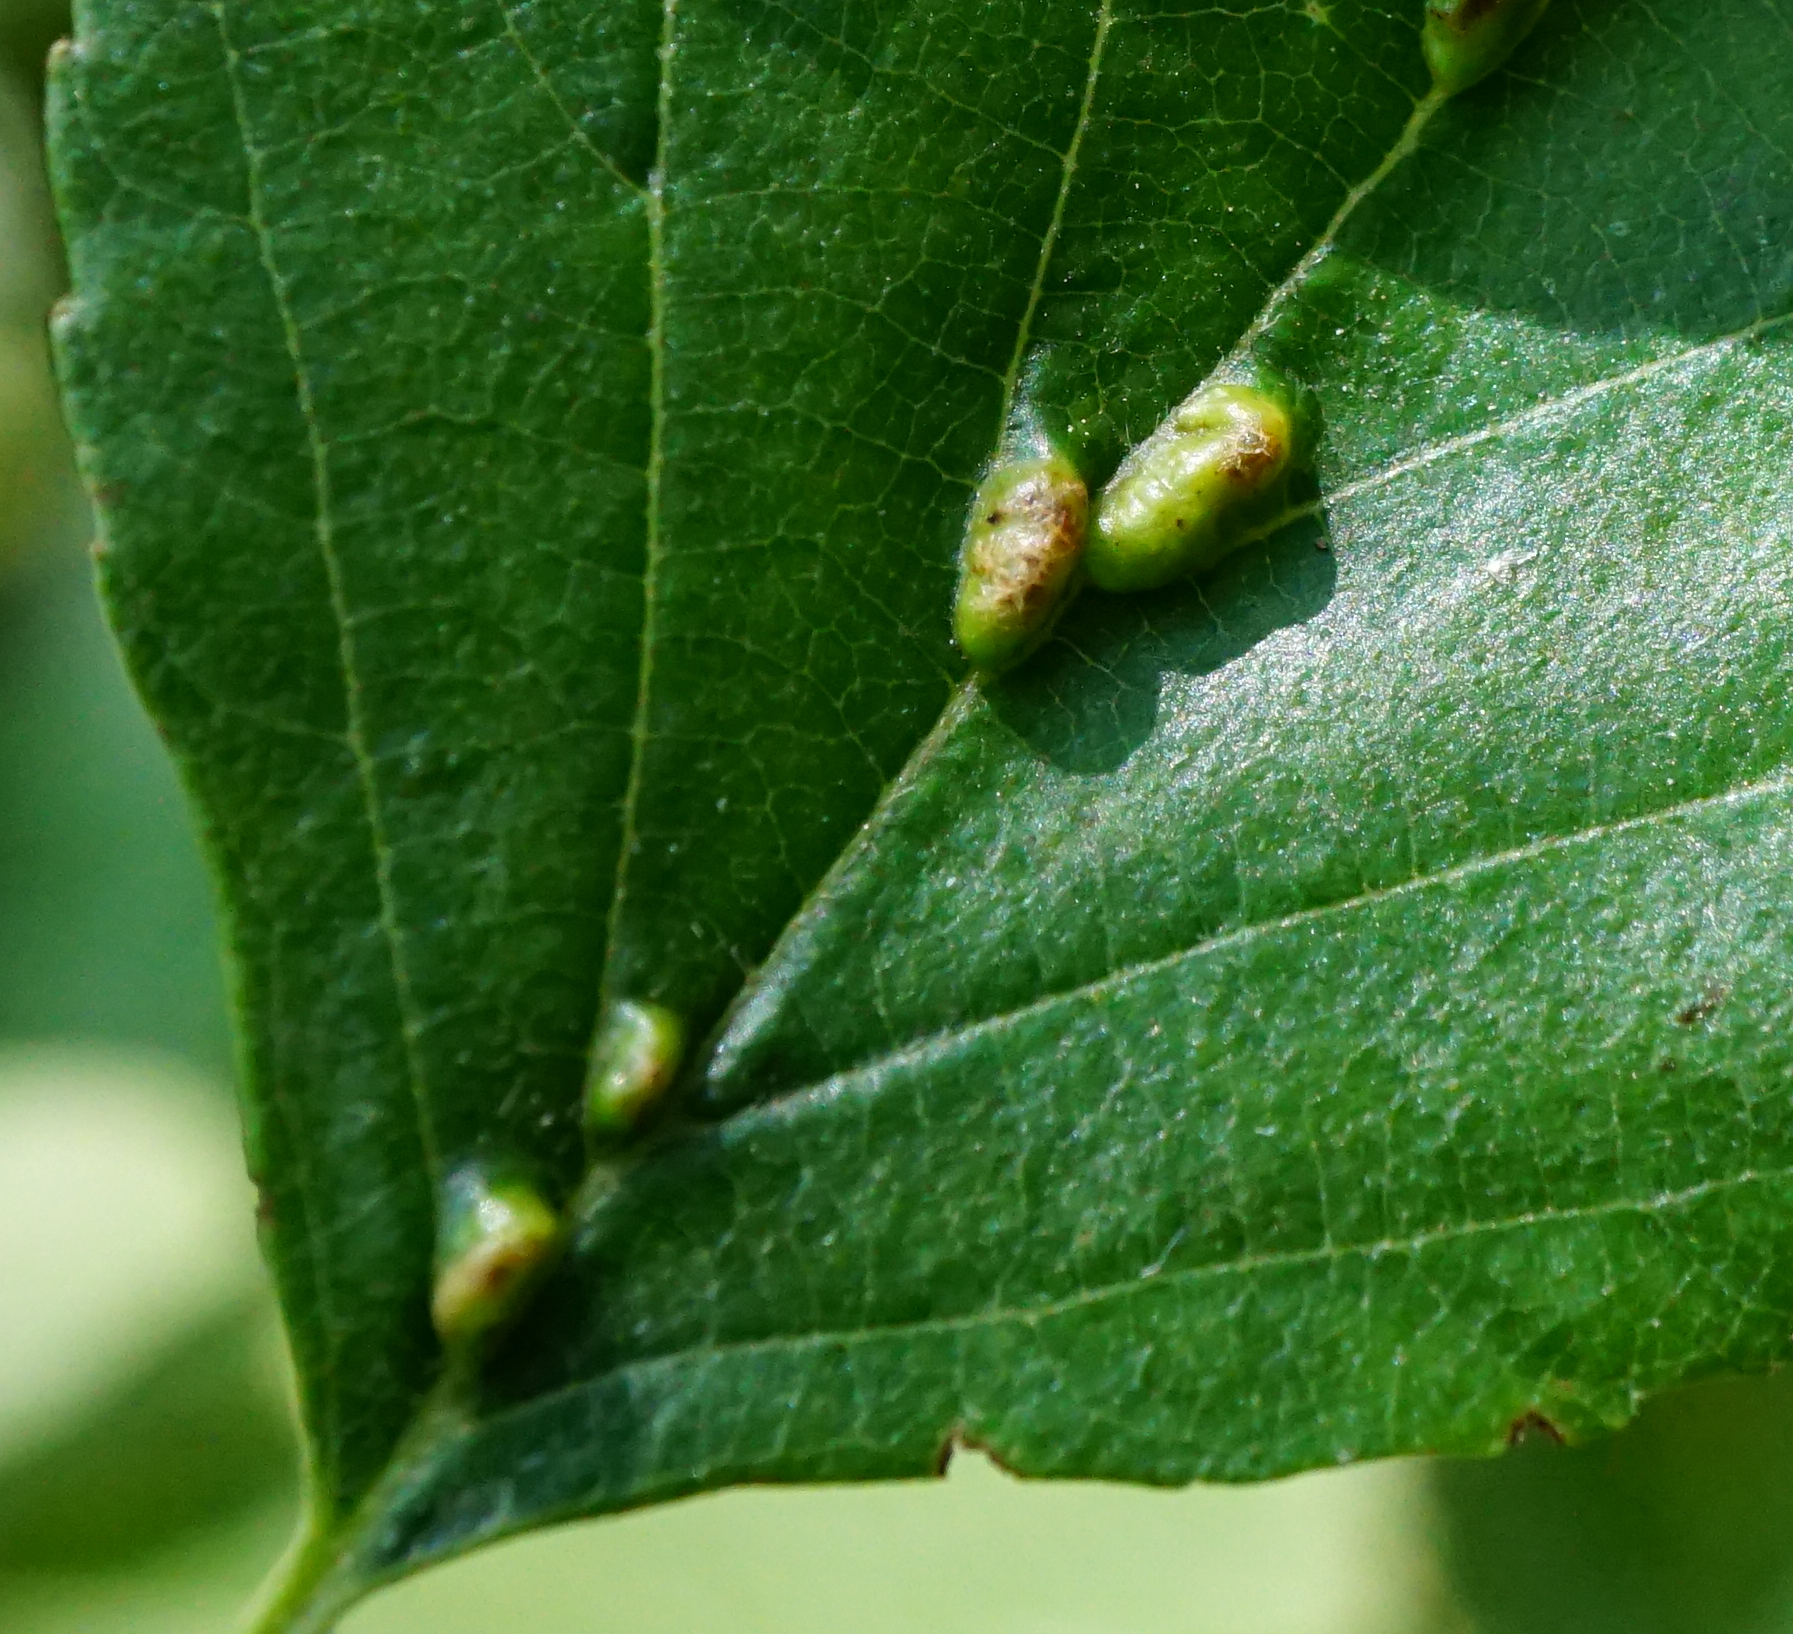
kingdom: Animalia
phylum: Arthropoda
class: Arachnida
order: Trombidiformes
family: Eriophyidae
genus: Eriophyes
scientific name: Eriophyes inangulis
